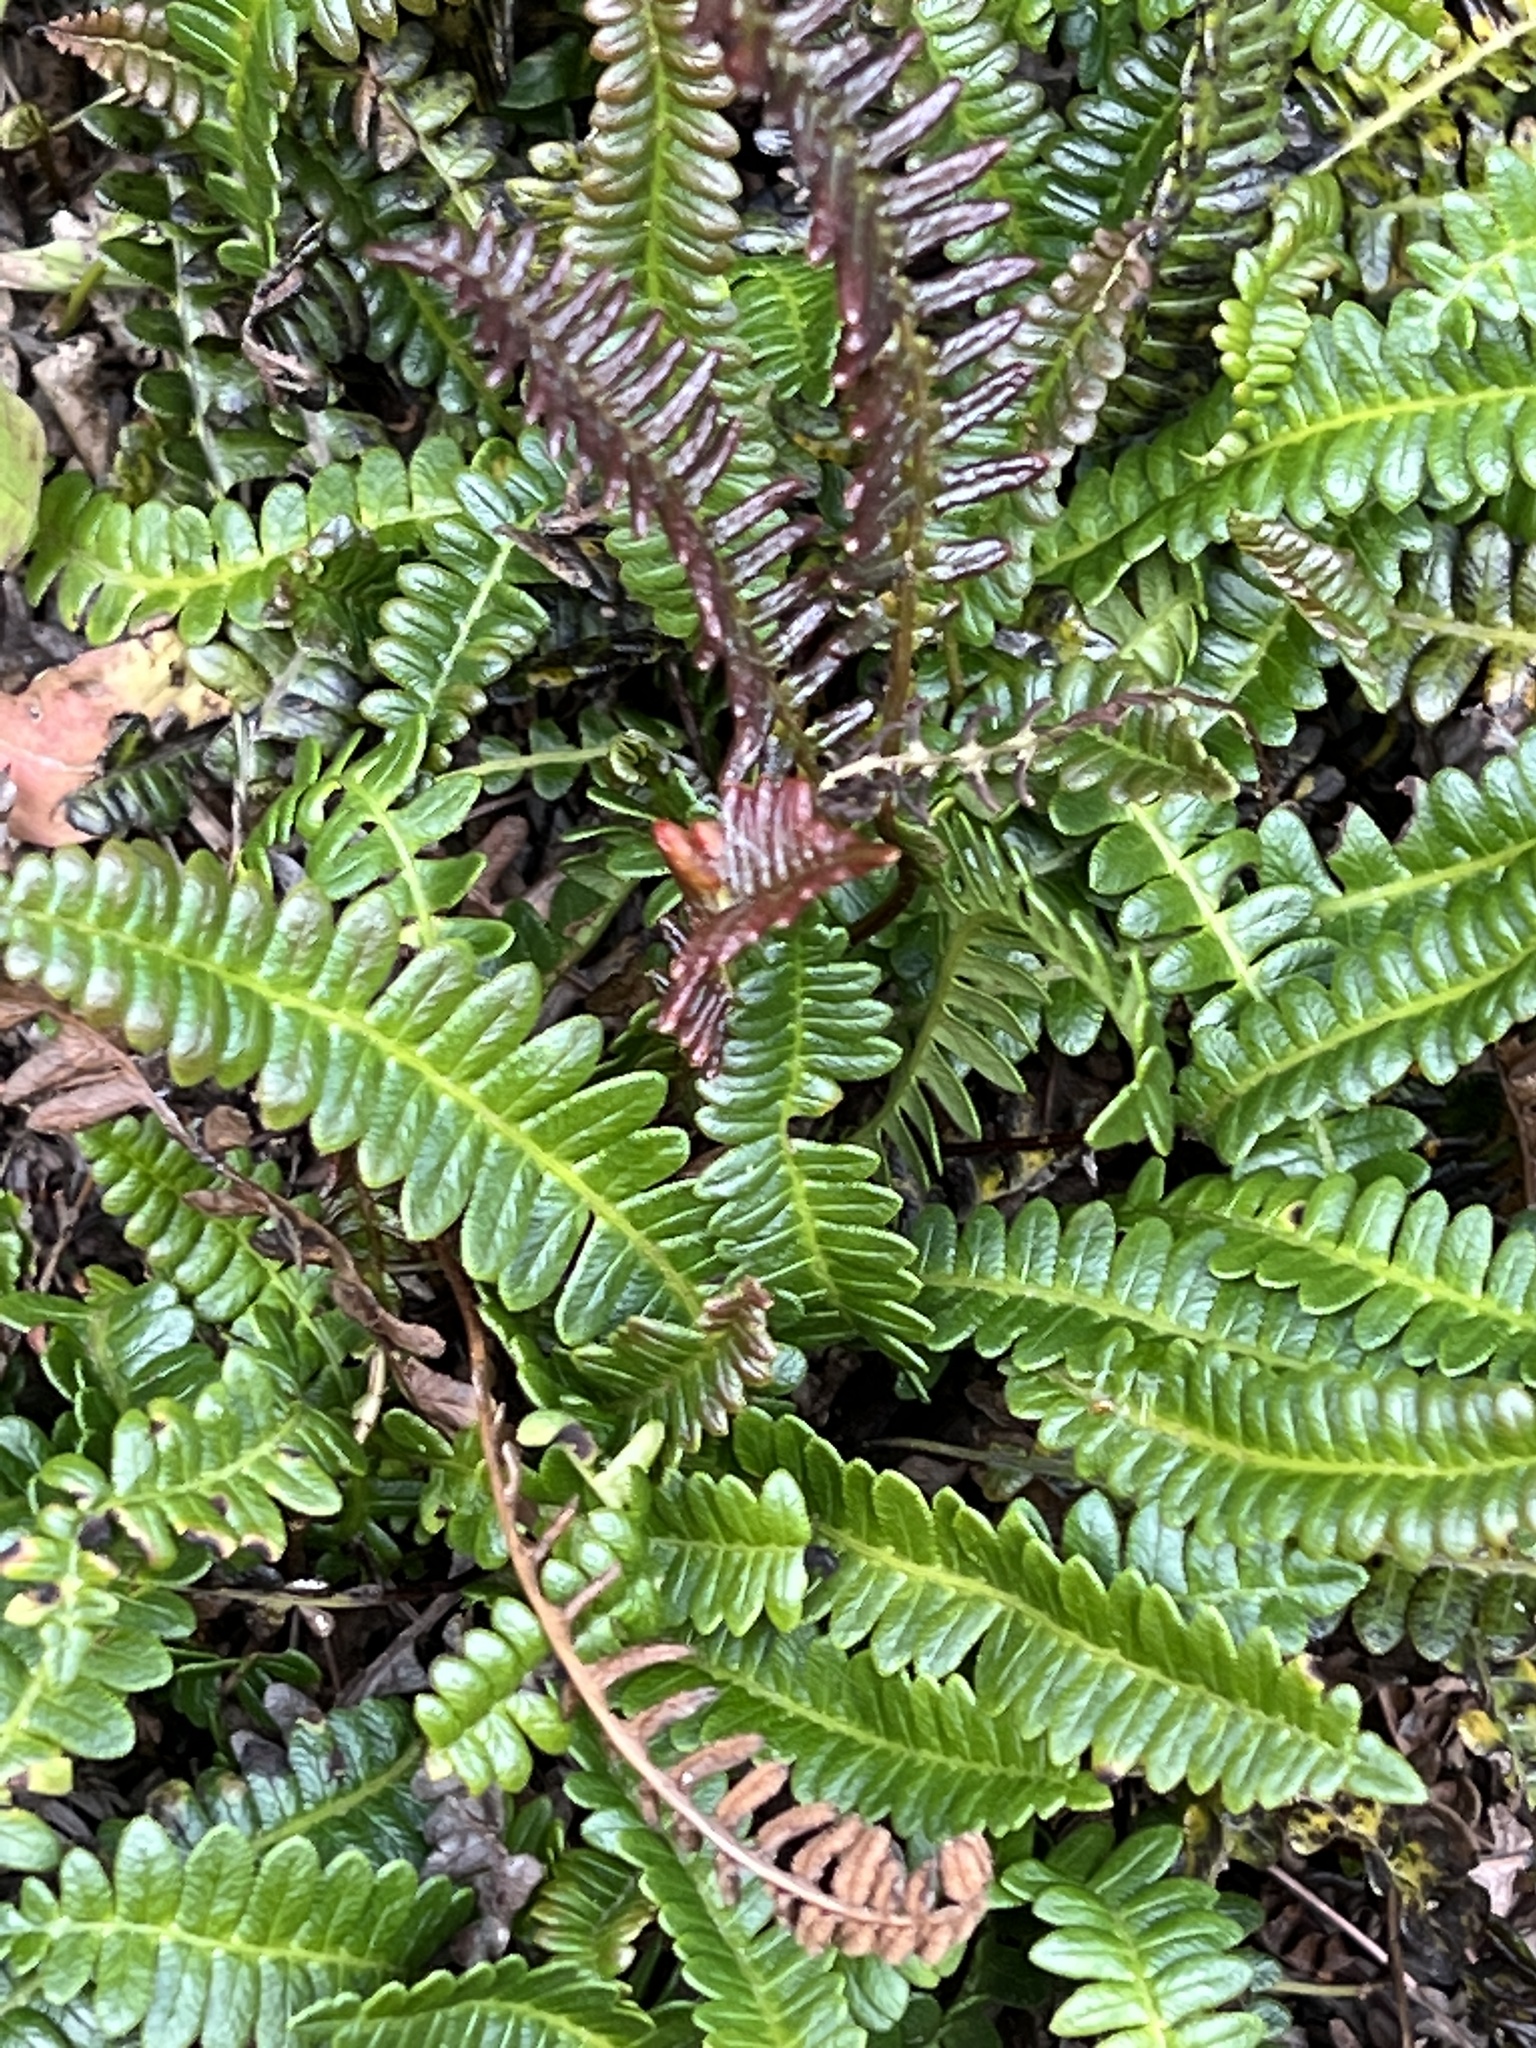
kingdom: Plantae
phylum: Tracheophyta
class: Polypodiopsida
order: Polypodiales
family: Blechnaceae
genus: Austroblechnum
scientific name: Austroblechnum penna-marina
